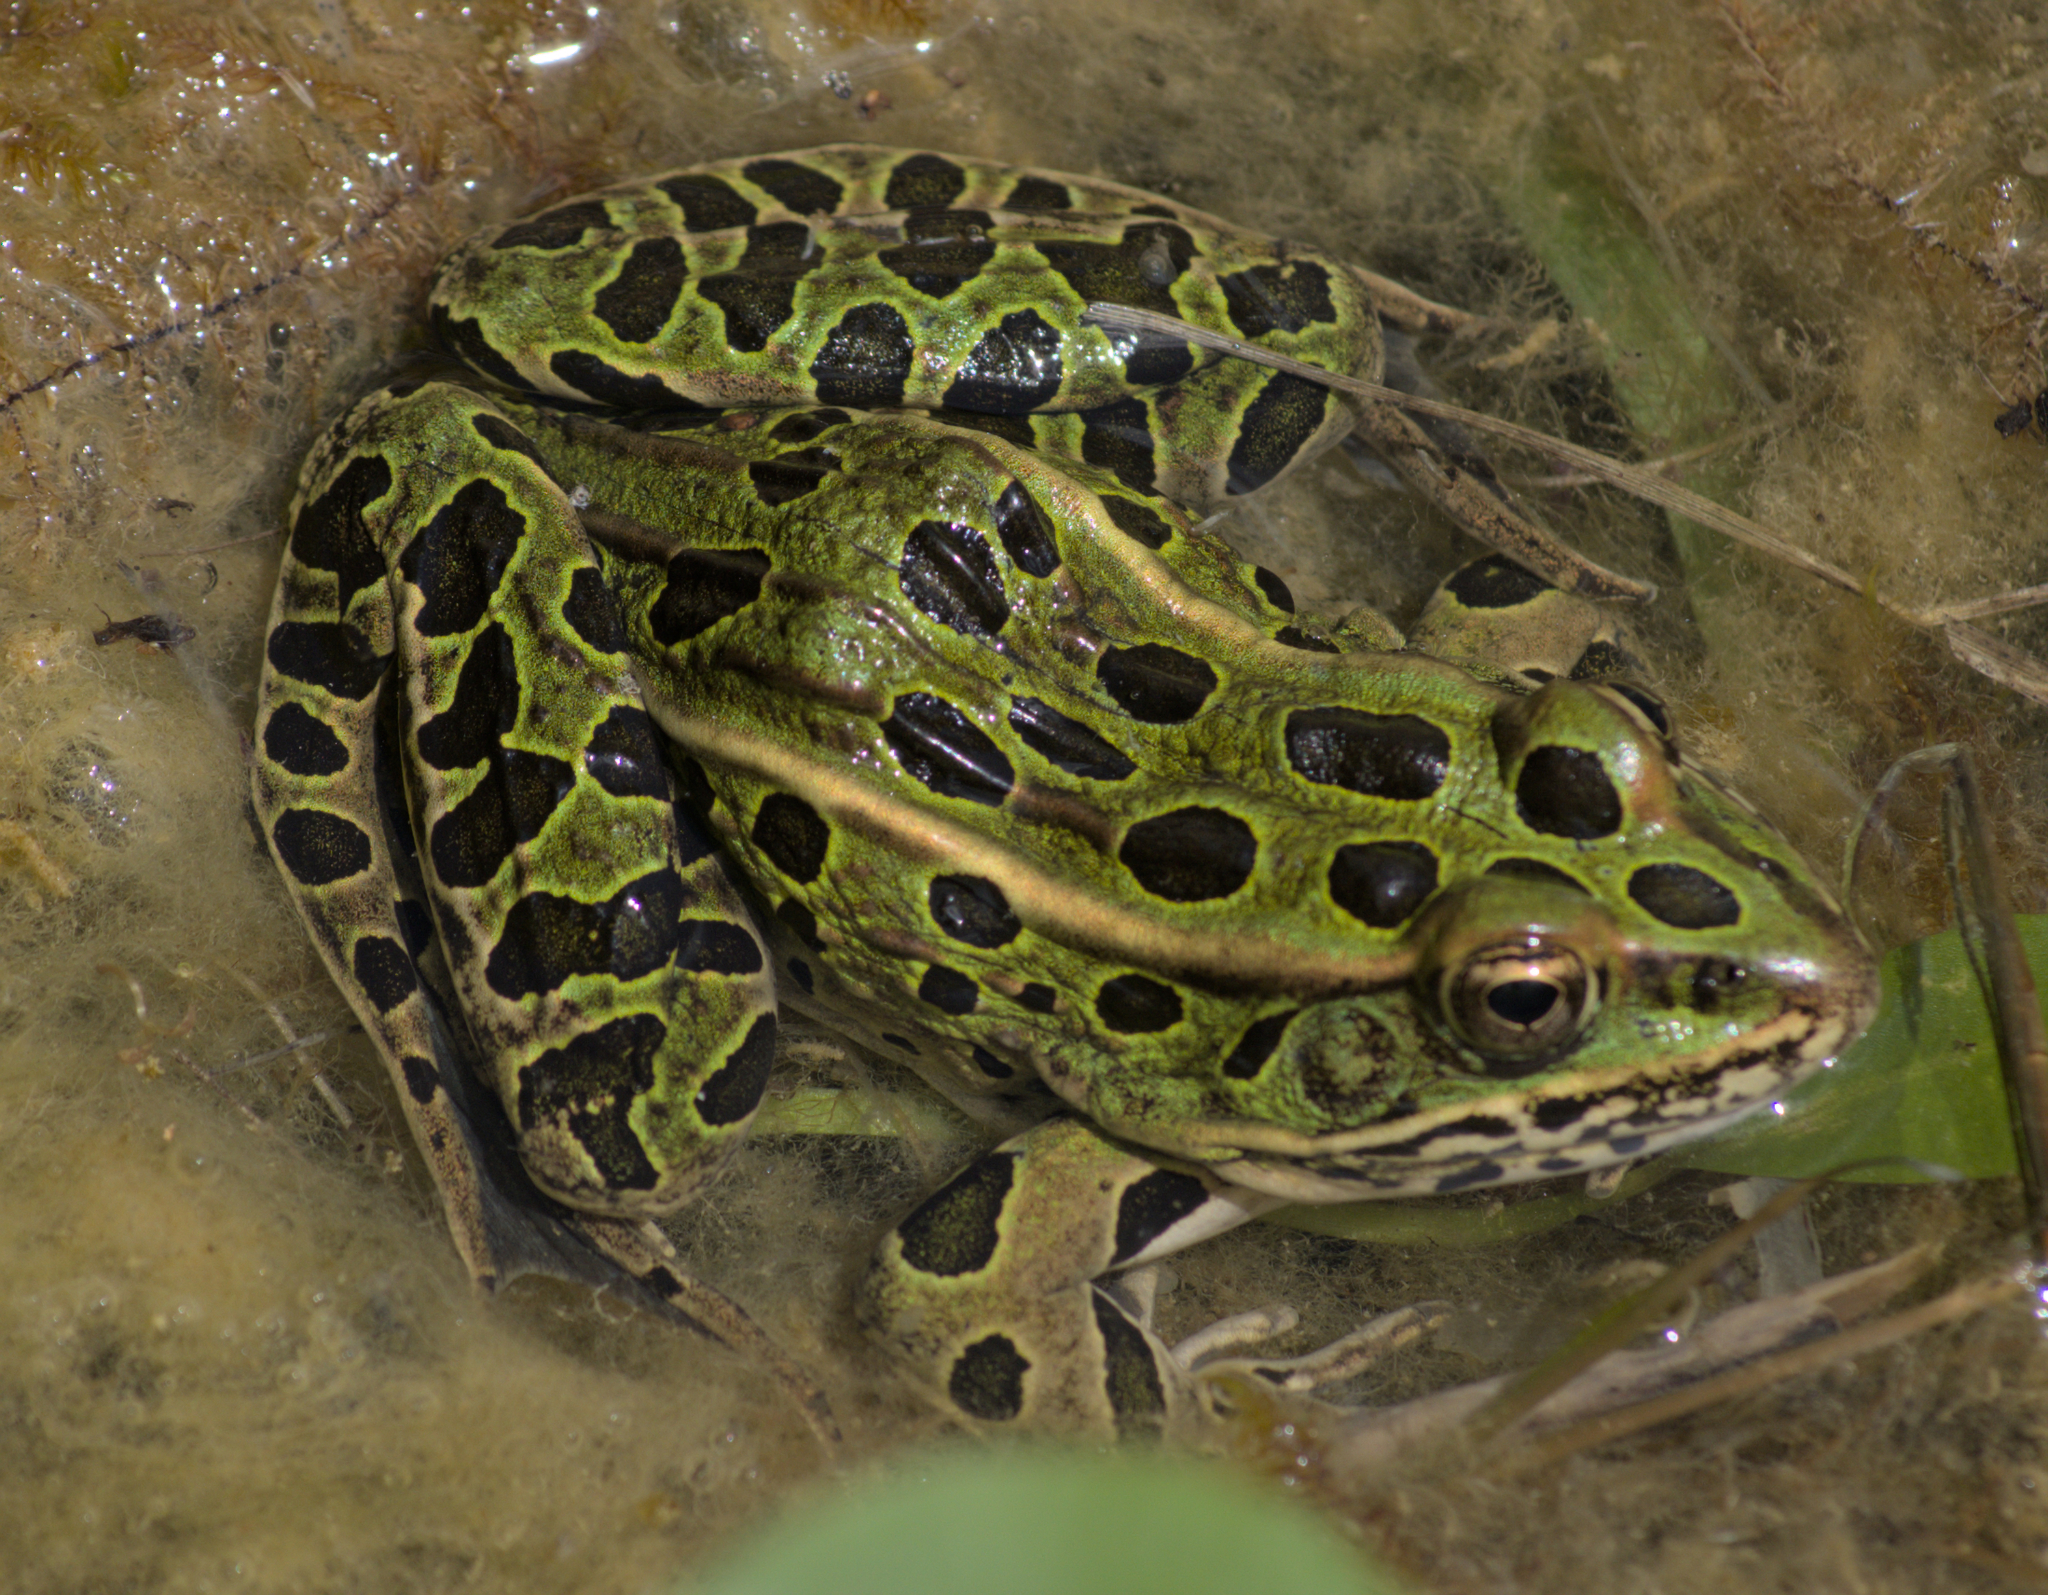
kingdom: Animalia
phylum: Chordata
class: Amphibia
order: Anura
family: Ranidae
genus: Lithobates
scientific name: Lithobates pipiens
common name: Northern leopard frog
